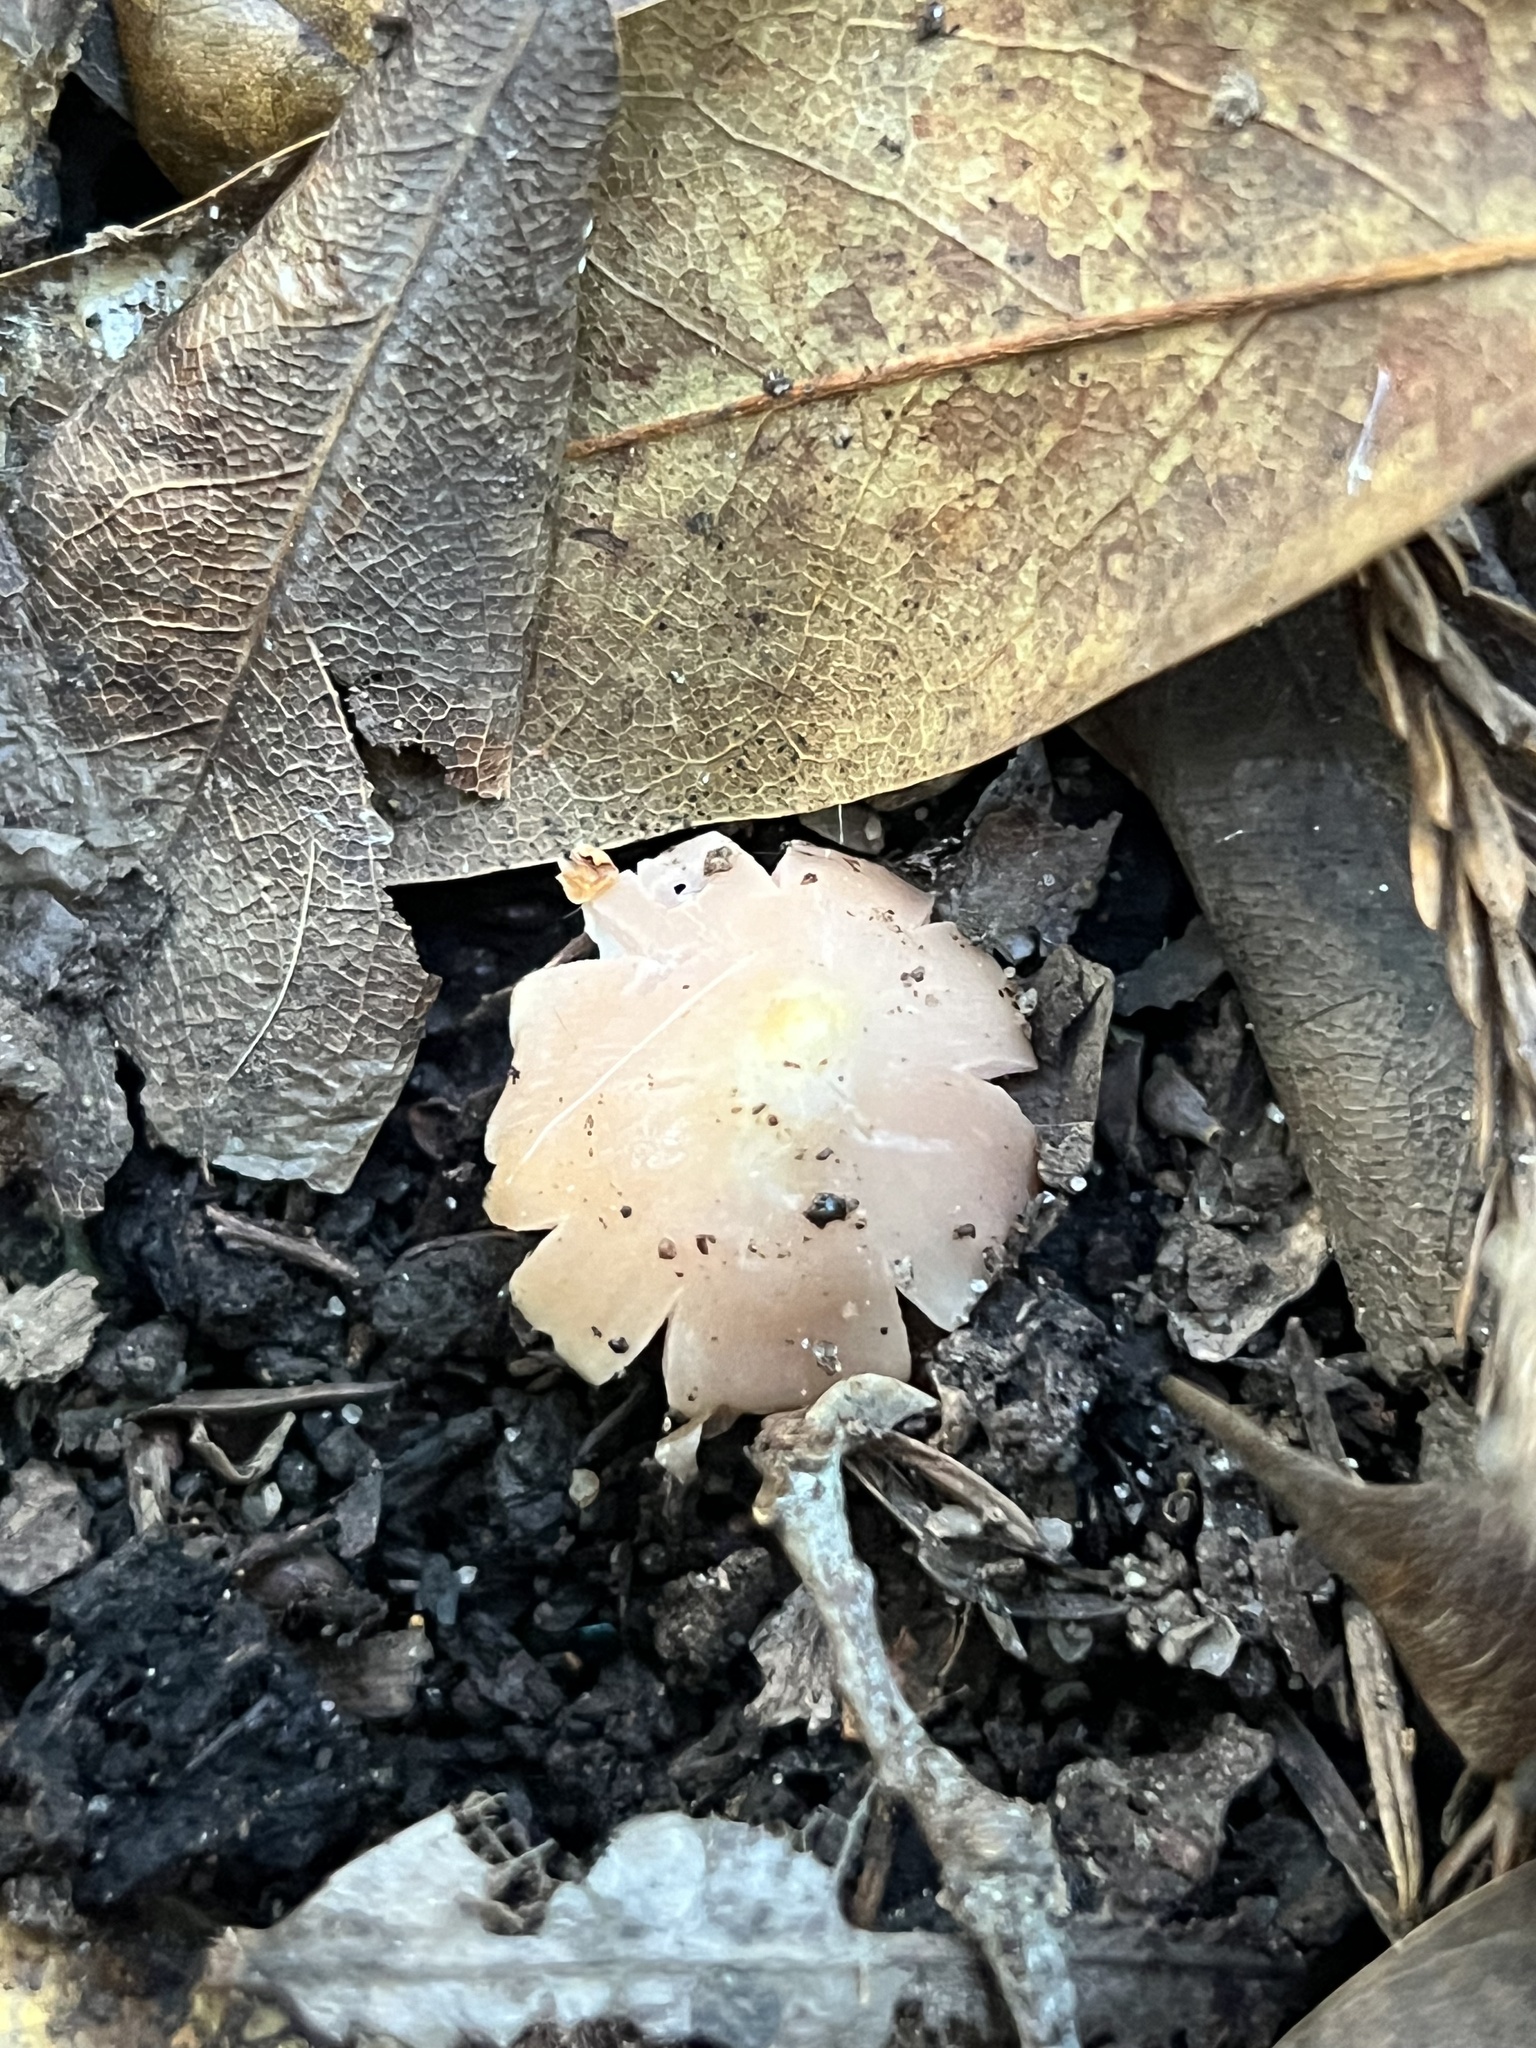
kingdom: Fungi
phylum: Basidiomycota
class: Agaricomycetes
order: Agaricales
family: Hygrophoraceae
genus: Porpolomopsis
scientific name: Porpolomopsis calyptriformis
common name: Pink waxcap
